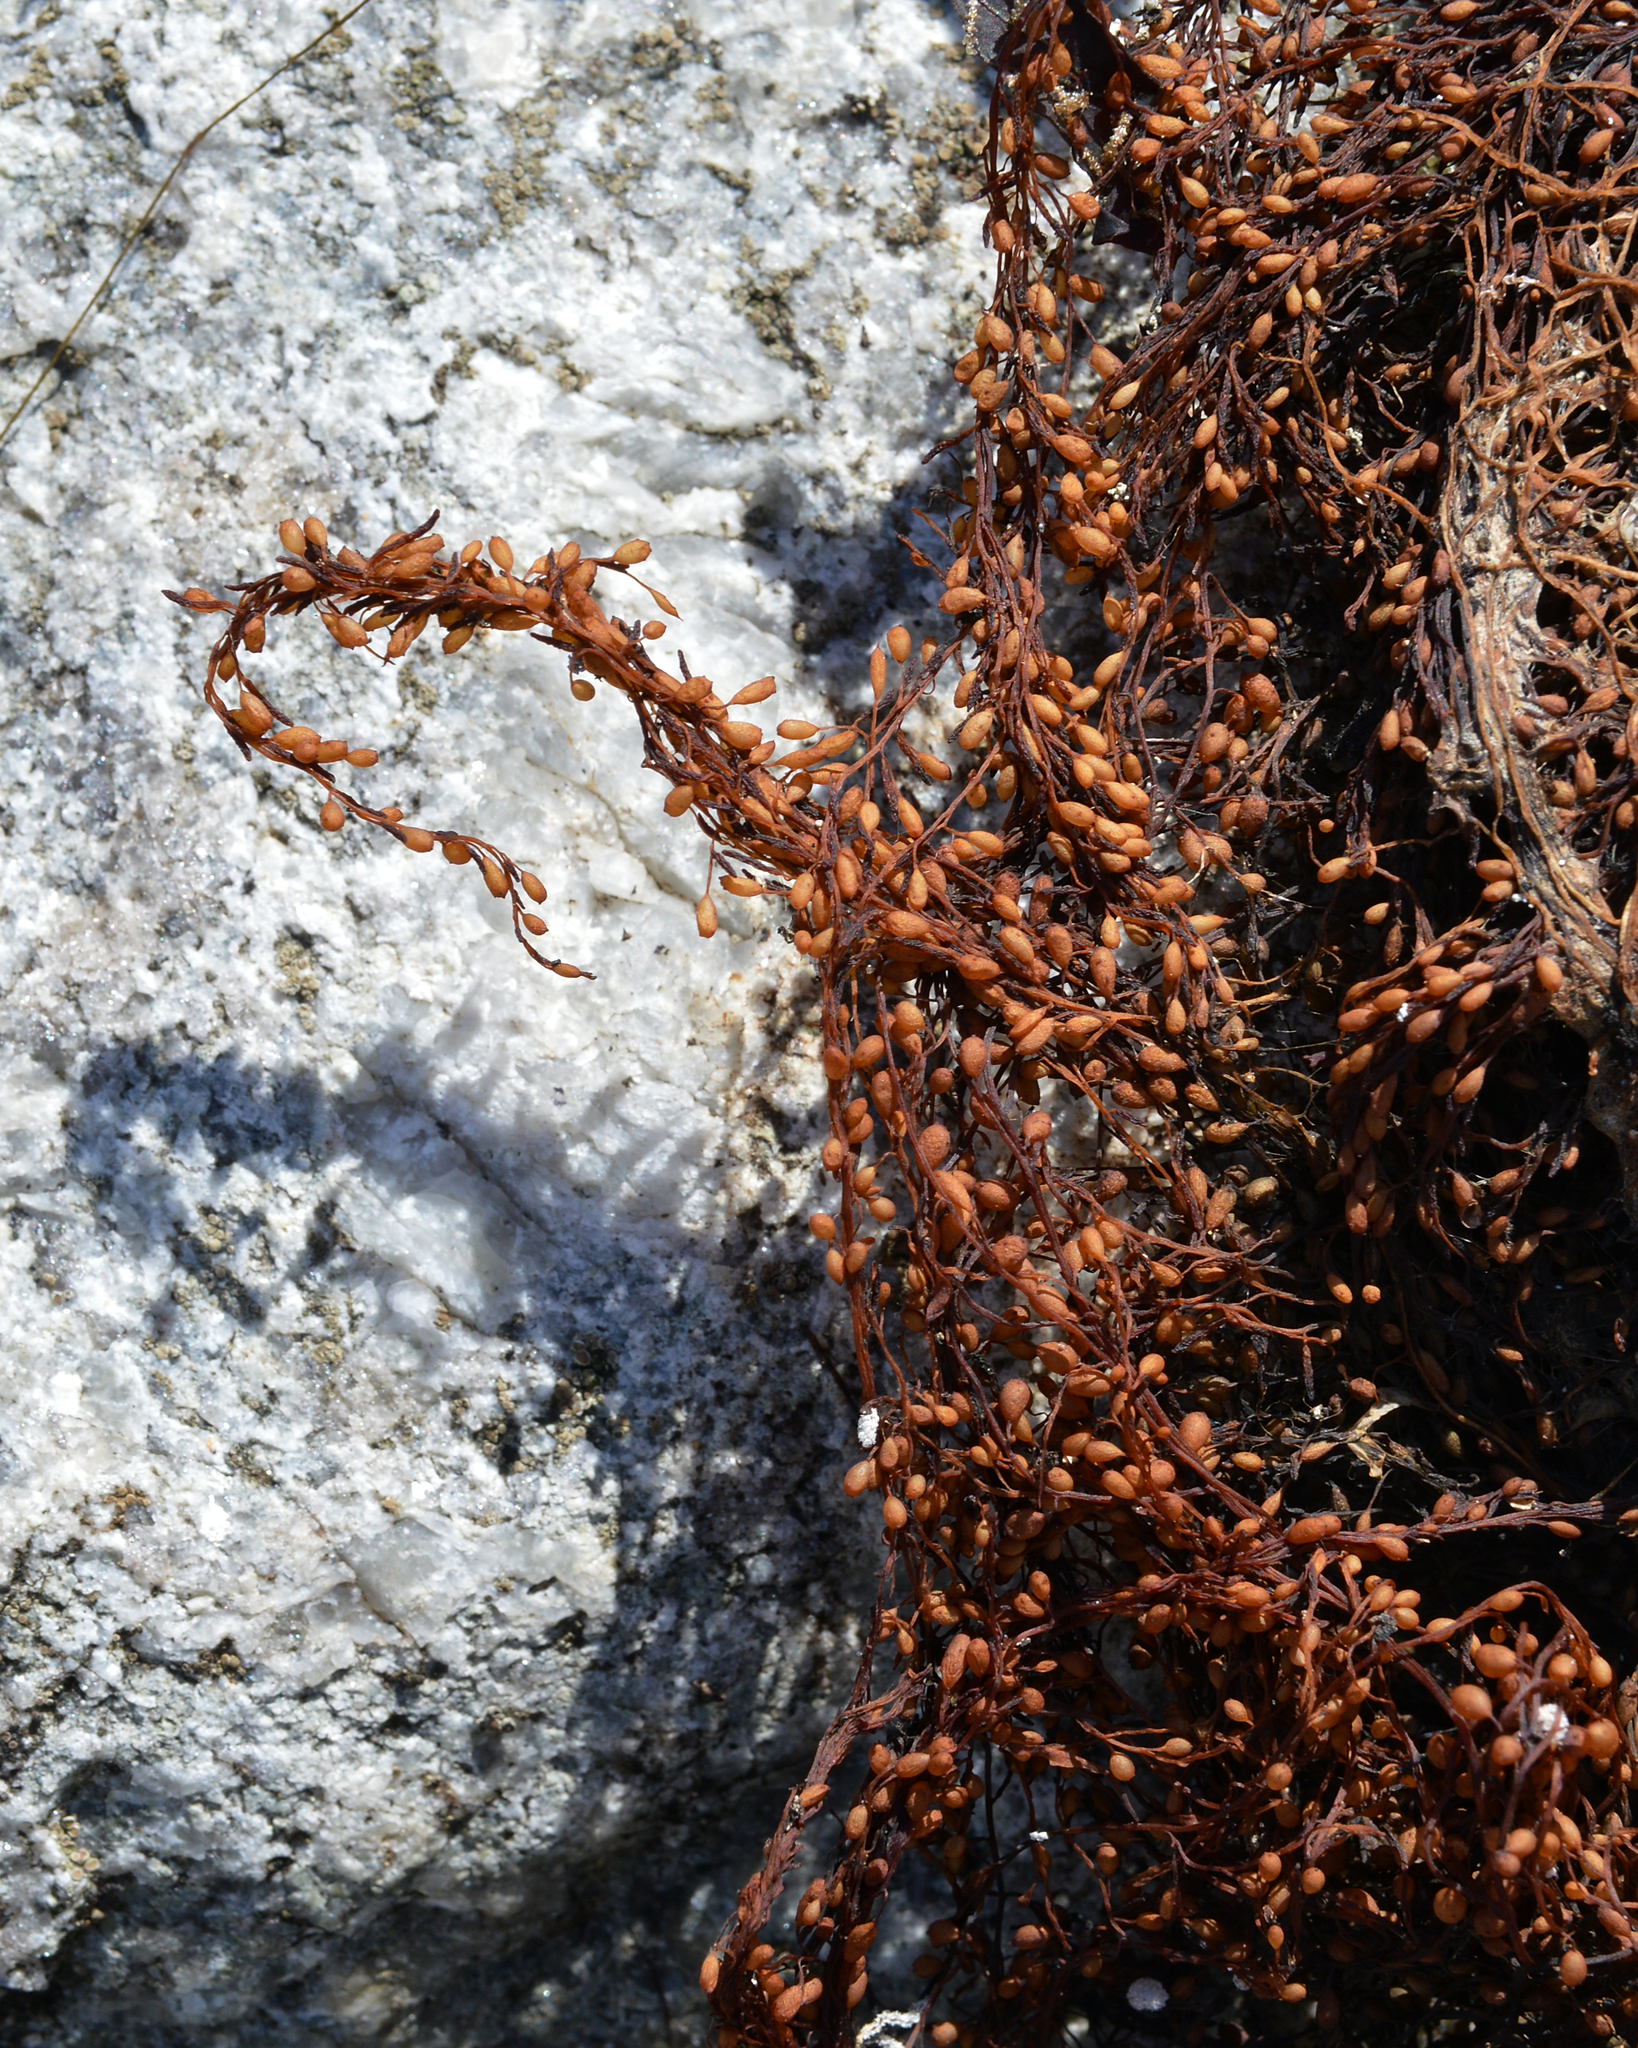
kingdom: Chromista
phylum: Ochrophyta
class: Phaeophyceae
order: Fucales
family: Sargassaceae
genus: Sargassum
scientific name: Sargassum muticum
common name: Japweed
